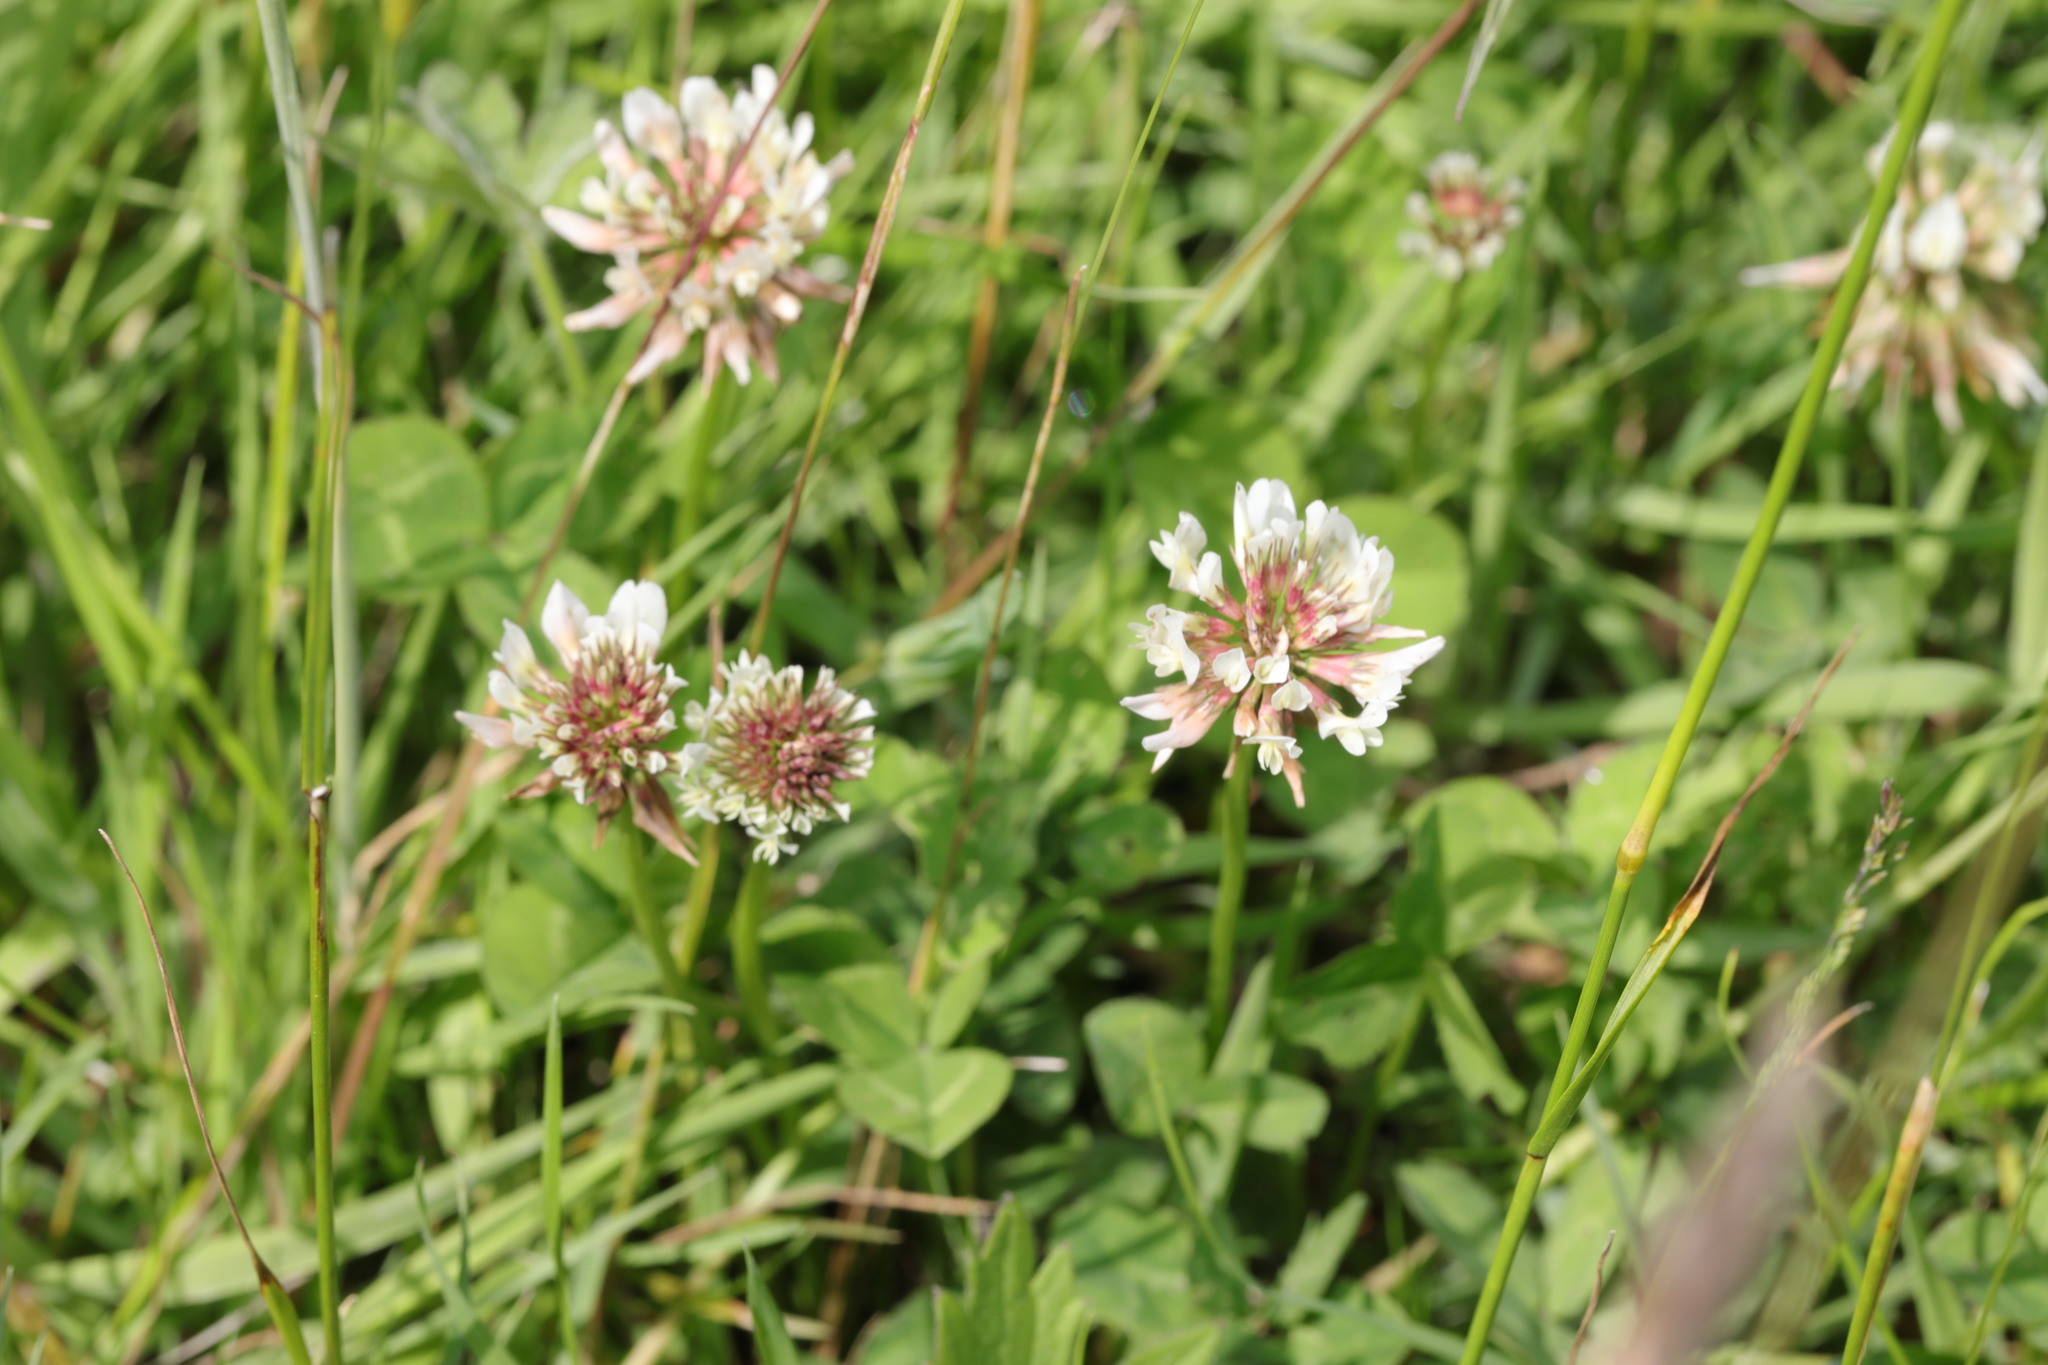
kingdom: Plantae
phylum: Tracheophyta
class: Magnoliopsida
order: Fabales
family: Fabaceae
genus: Trifolium
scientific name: Trifolium repens
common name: White clover
